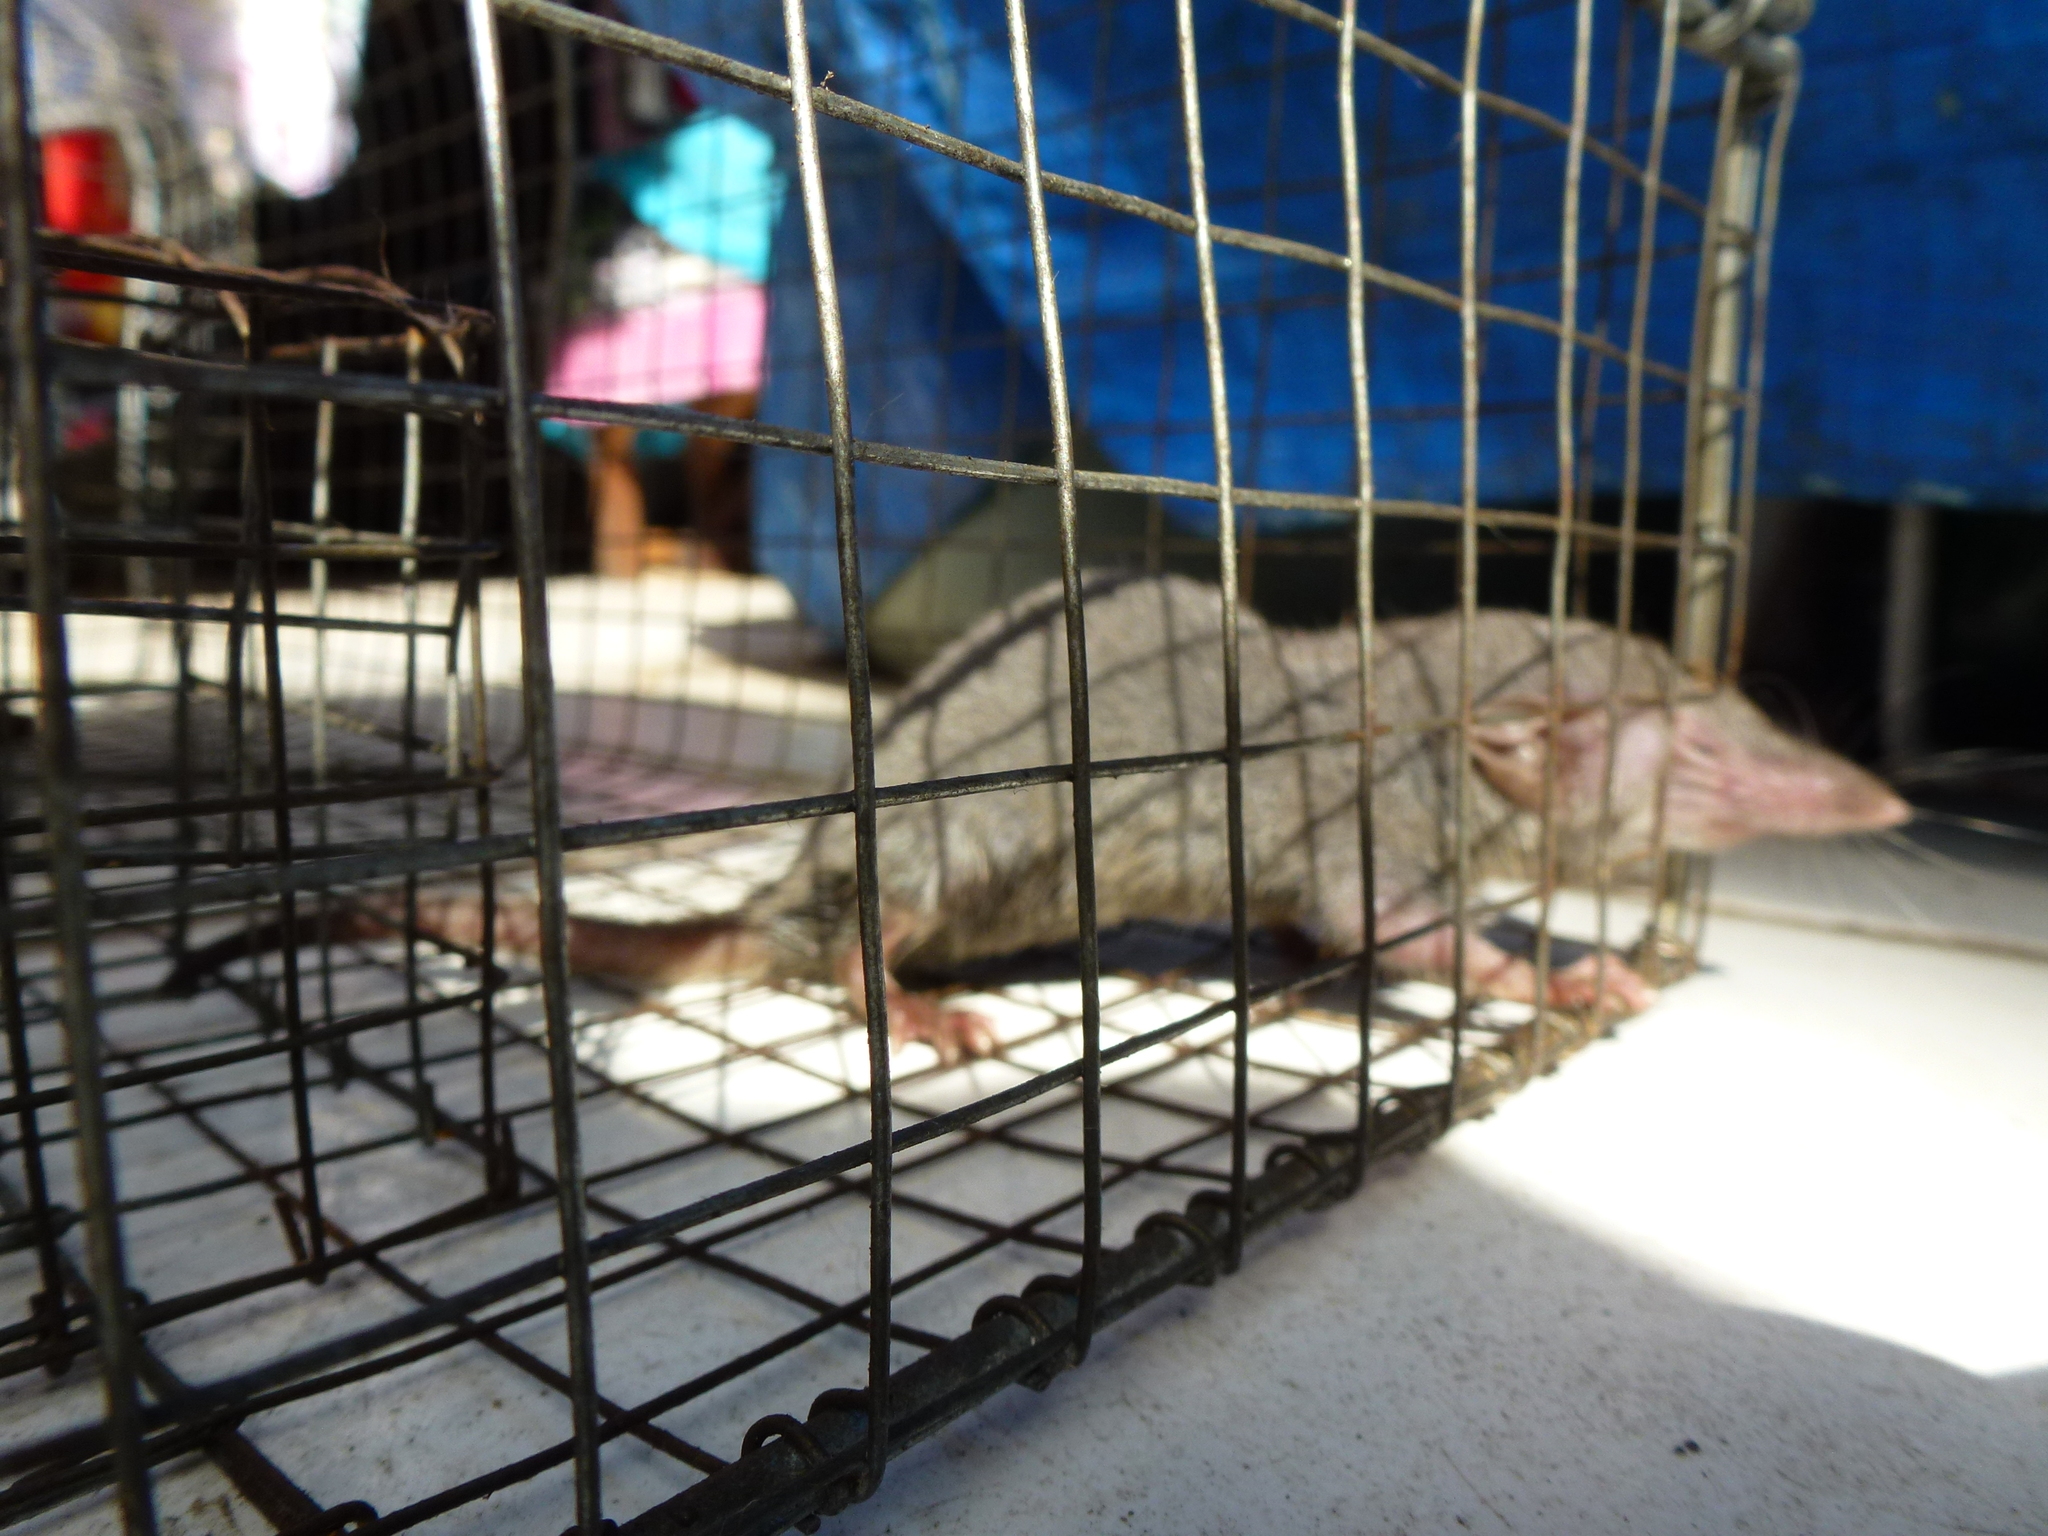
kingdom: Animalia
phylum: Chordata
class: Mammalia
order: Soricomorpha
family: Soricidae
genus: Suncus
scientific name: Suncus murinus
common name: Asian house shrew
